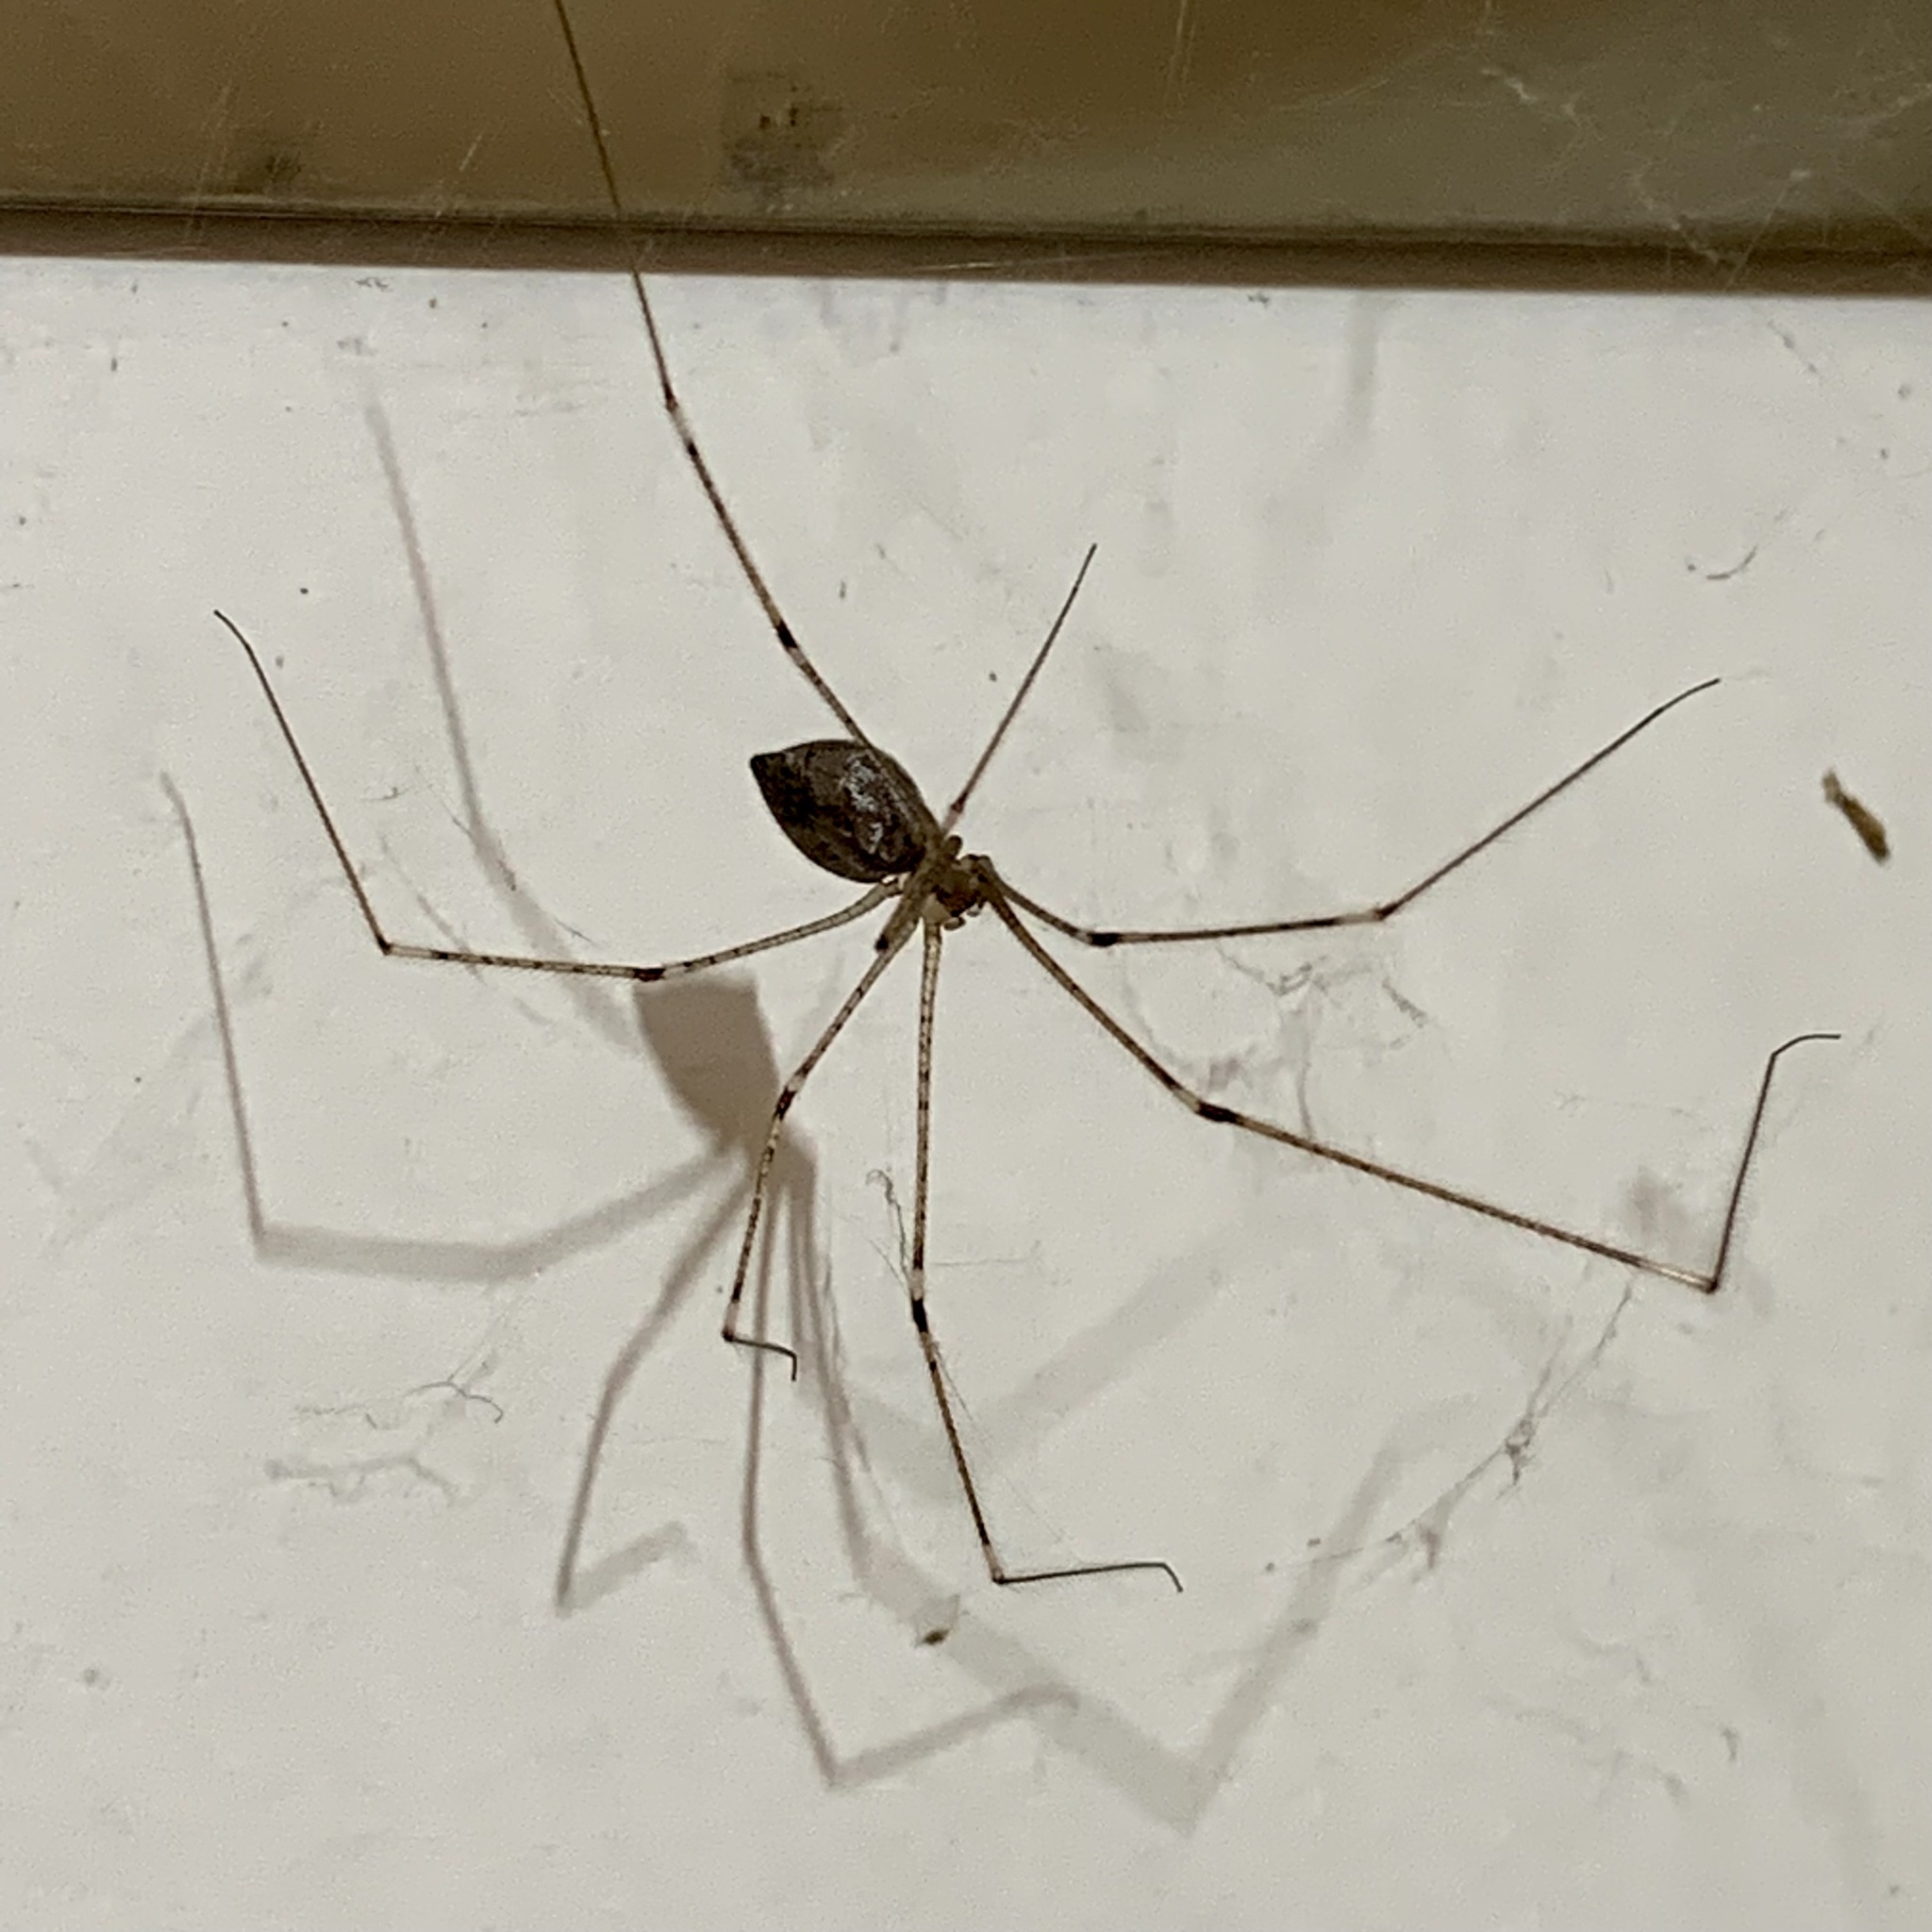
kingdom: Animalia
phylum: Arthropoda
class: Arachnida
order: Araneae
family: Pholcidae
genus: Crossopriza
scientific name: Crossopriza lyoni
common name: Cellar spiders
